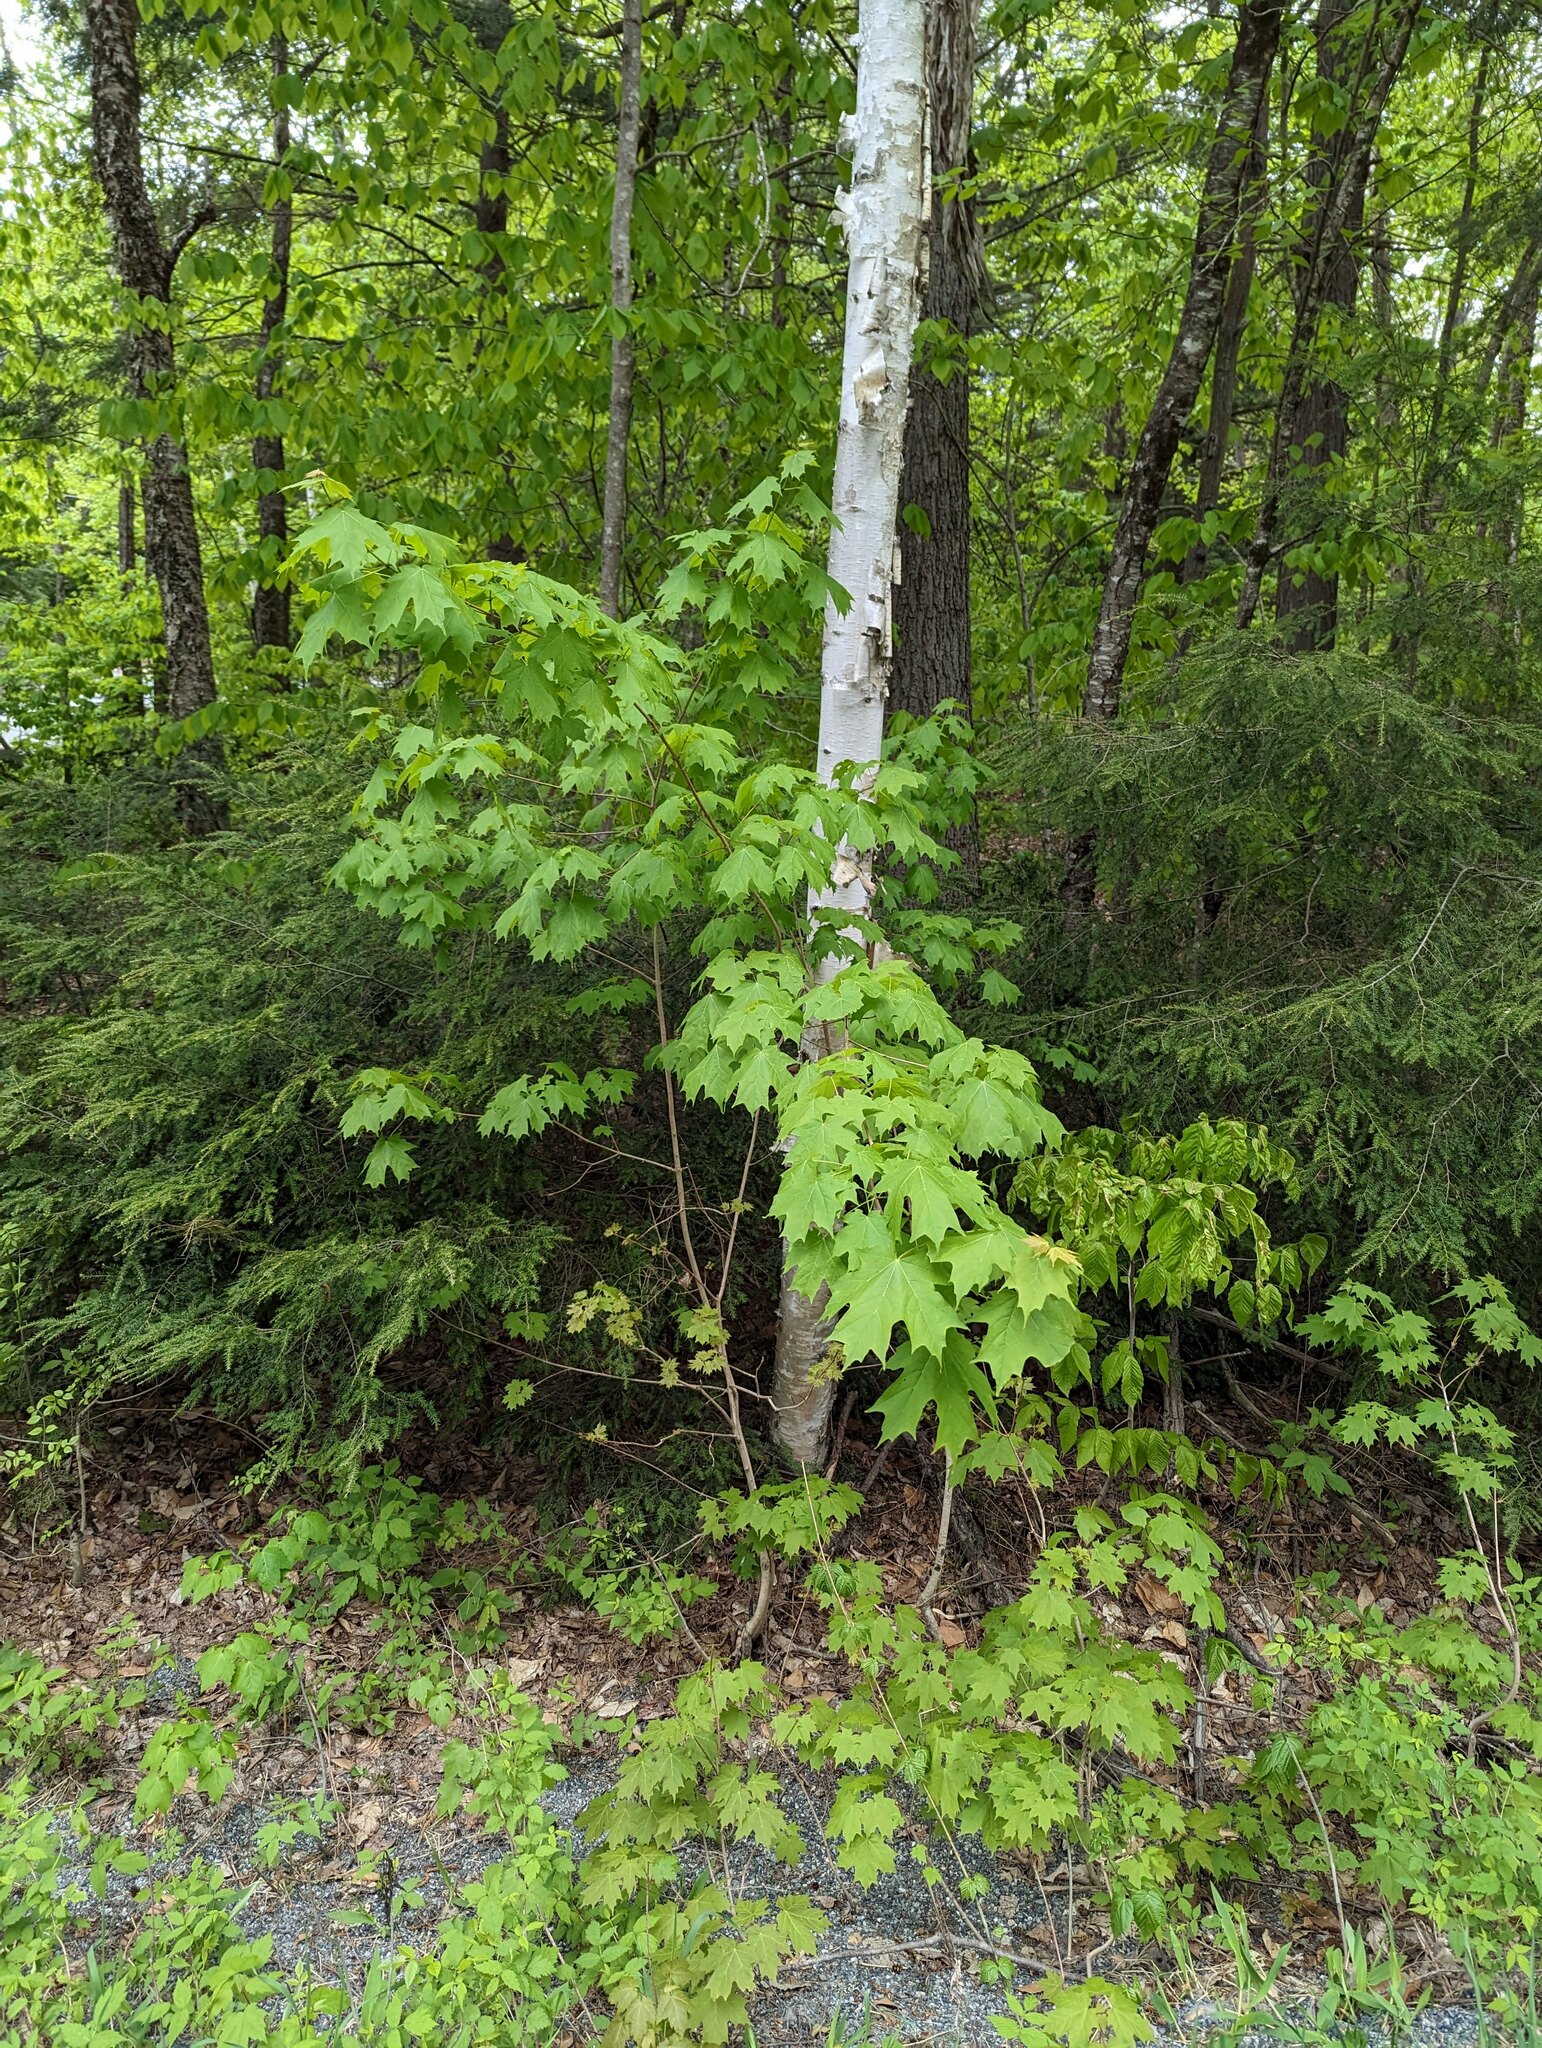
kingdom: Plantae
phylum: Tracheophyta
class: Magnoliopsida
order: Sapindales
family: Sapindaceae
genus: Acer
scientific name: Acer saccharum
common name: Sugar maple
